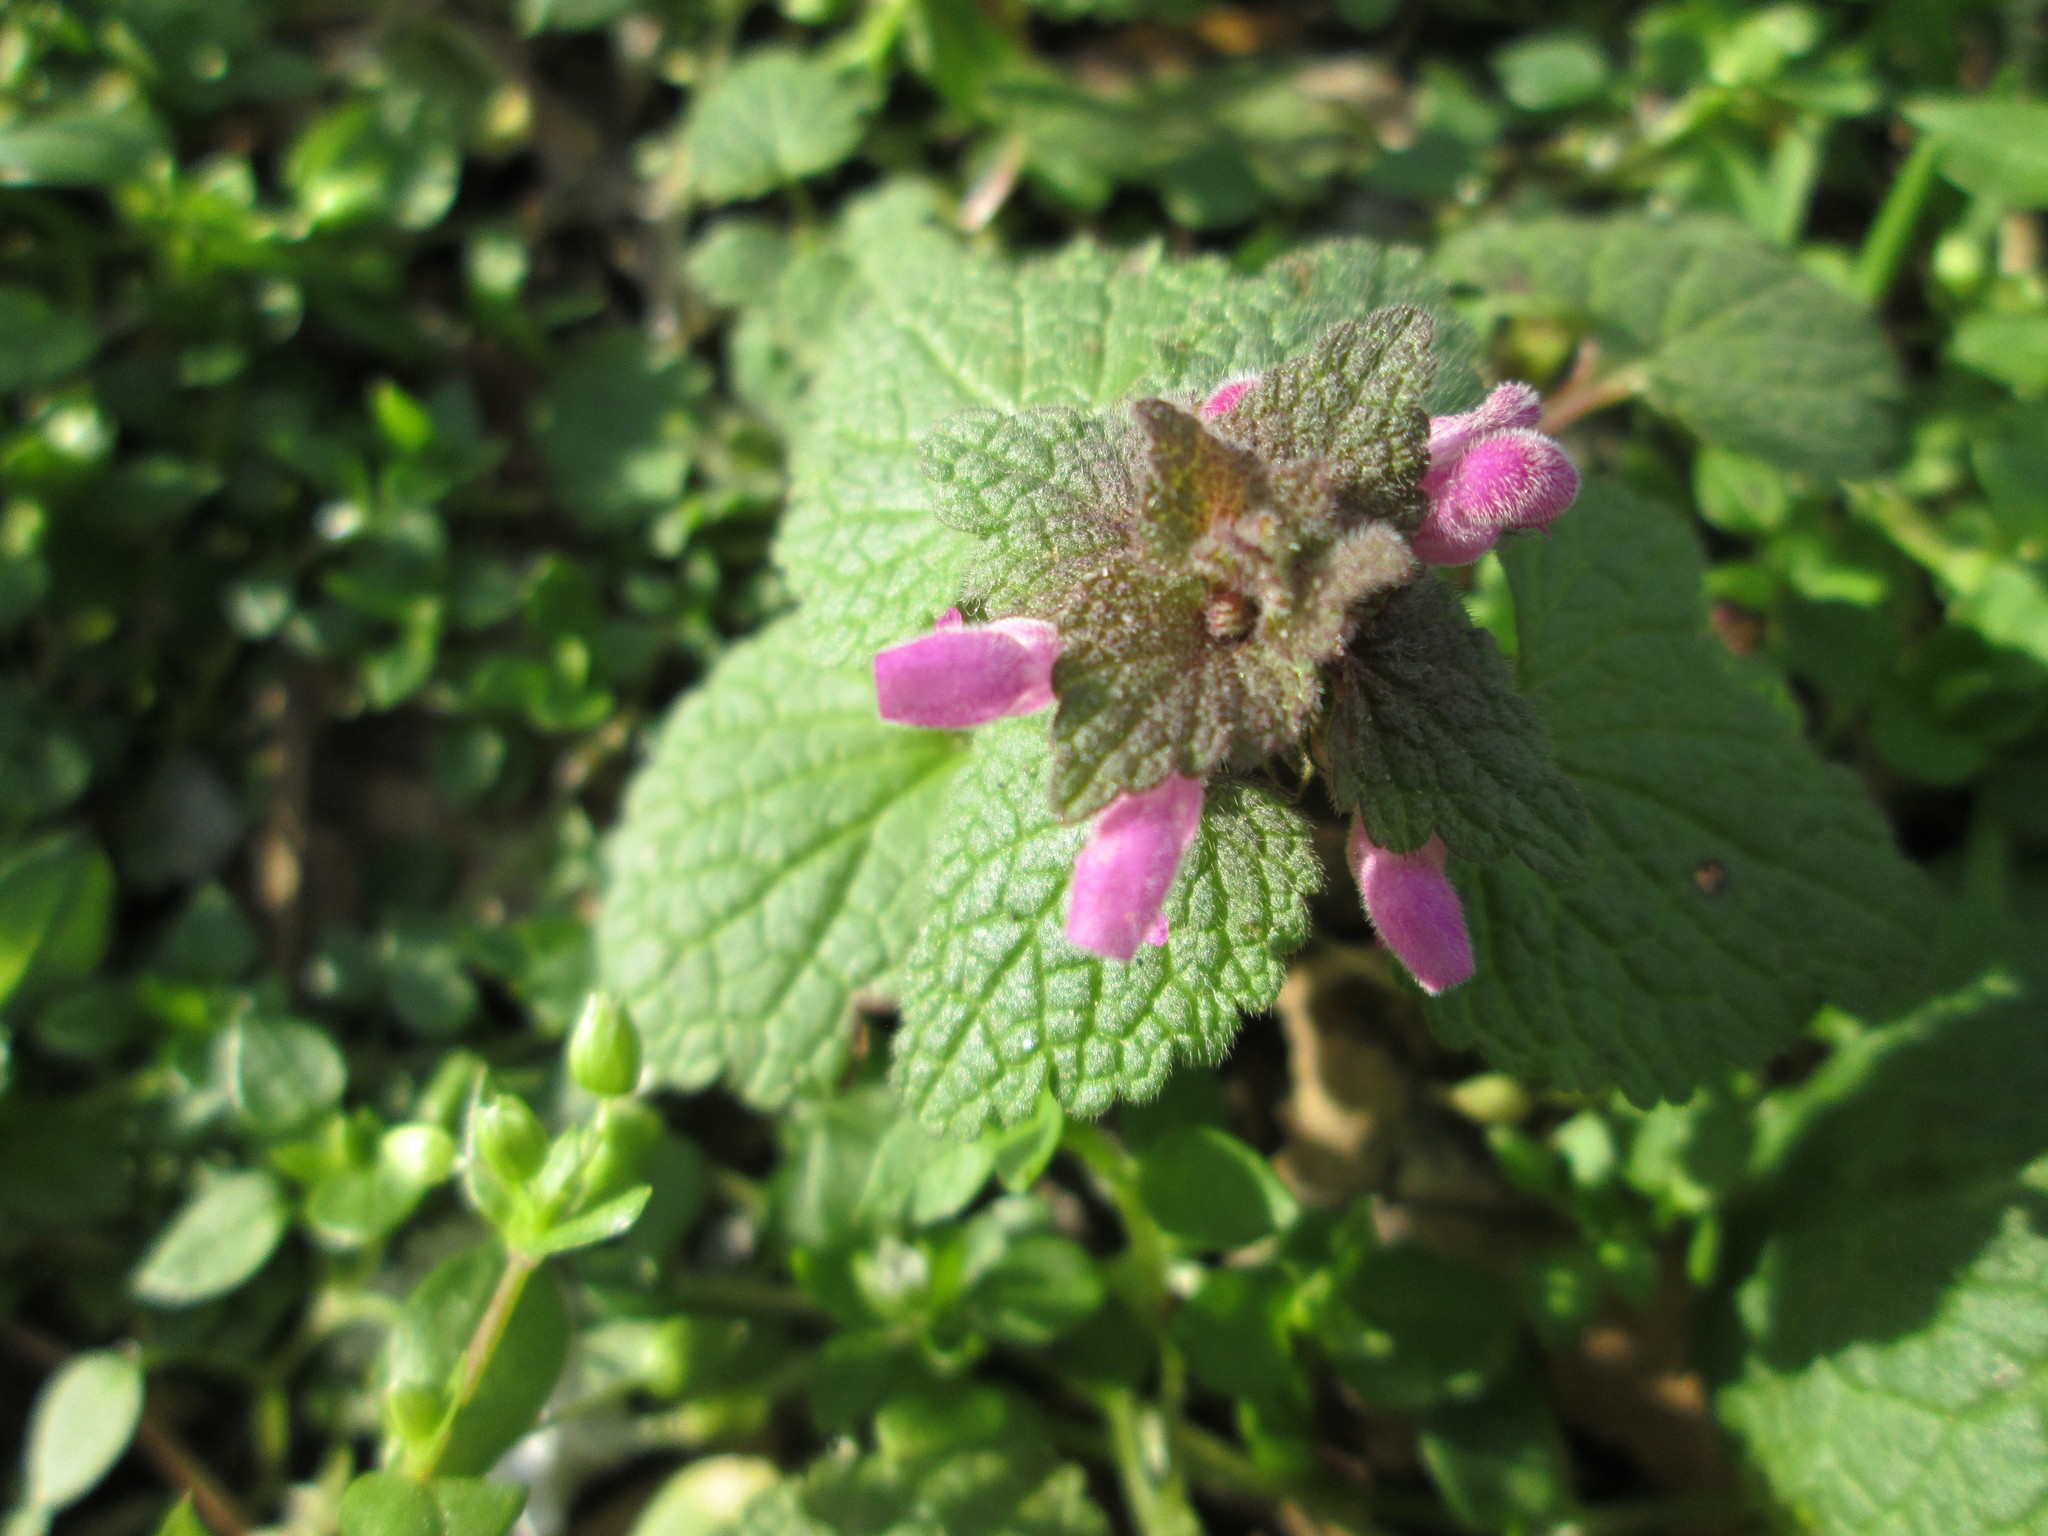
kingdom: Plantae
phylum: Tracheophyta
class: Magnoliopsida
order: Lamiales
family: Lamiaceae
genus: Lamium
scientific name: Lamium purpureum
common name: Red dead-nettle
